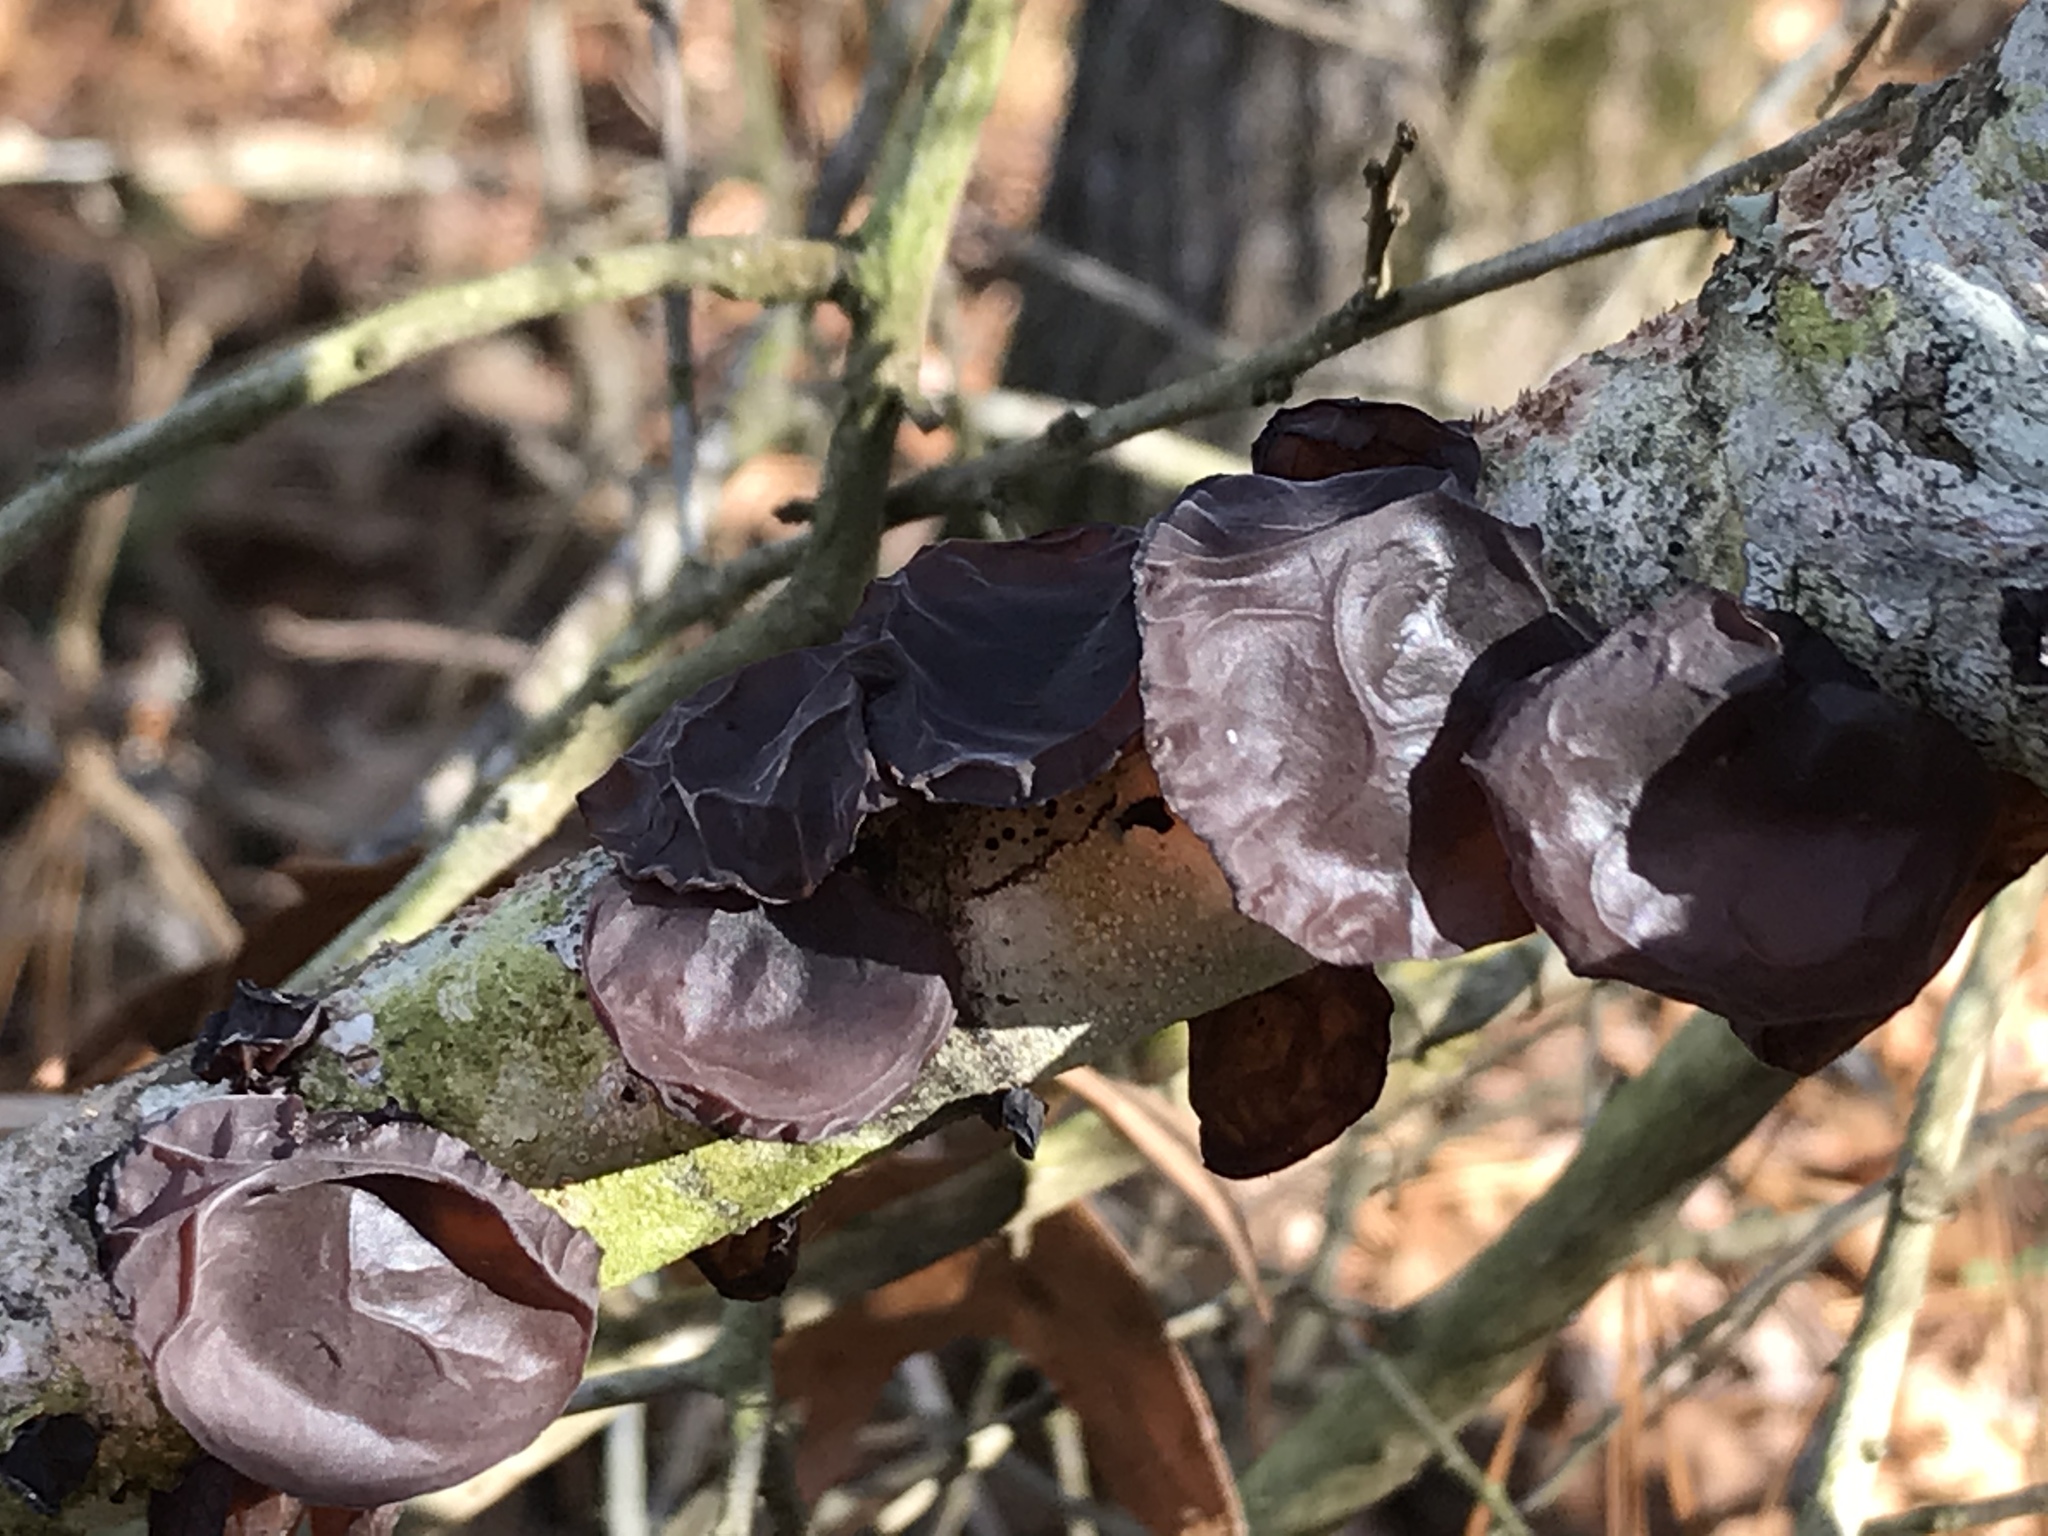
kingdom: Fungi
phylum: Basidiomycota
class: Agaricomycetes
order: Auriculariales
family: Auriculariaceae
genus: Exidia
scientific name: Exidia
